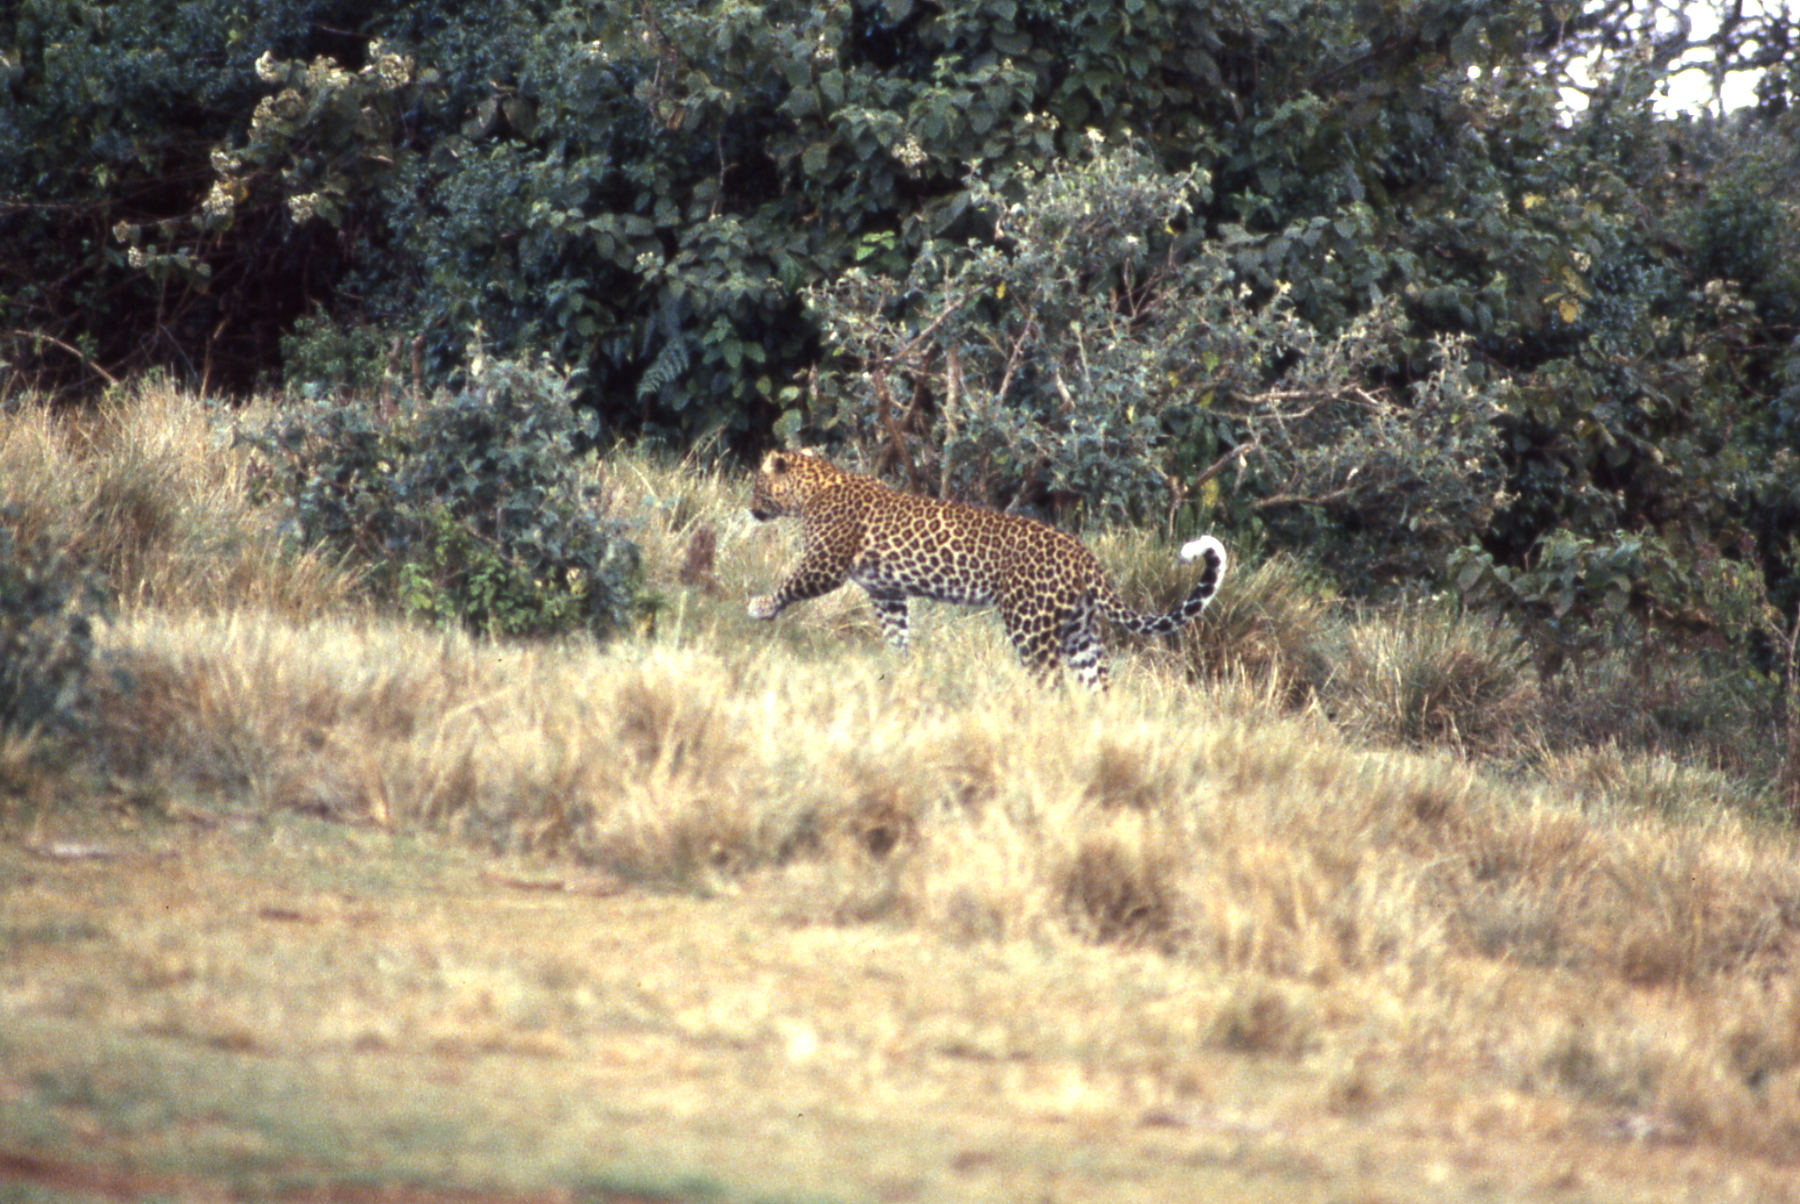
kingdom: Animalia
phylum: Chordata
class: Mammalia
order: Carnivora
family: Felidae
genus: Panthera
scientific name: Panthera pardus
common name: Leopard
